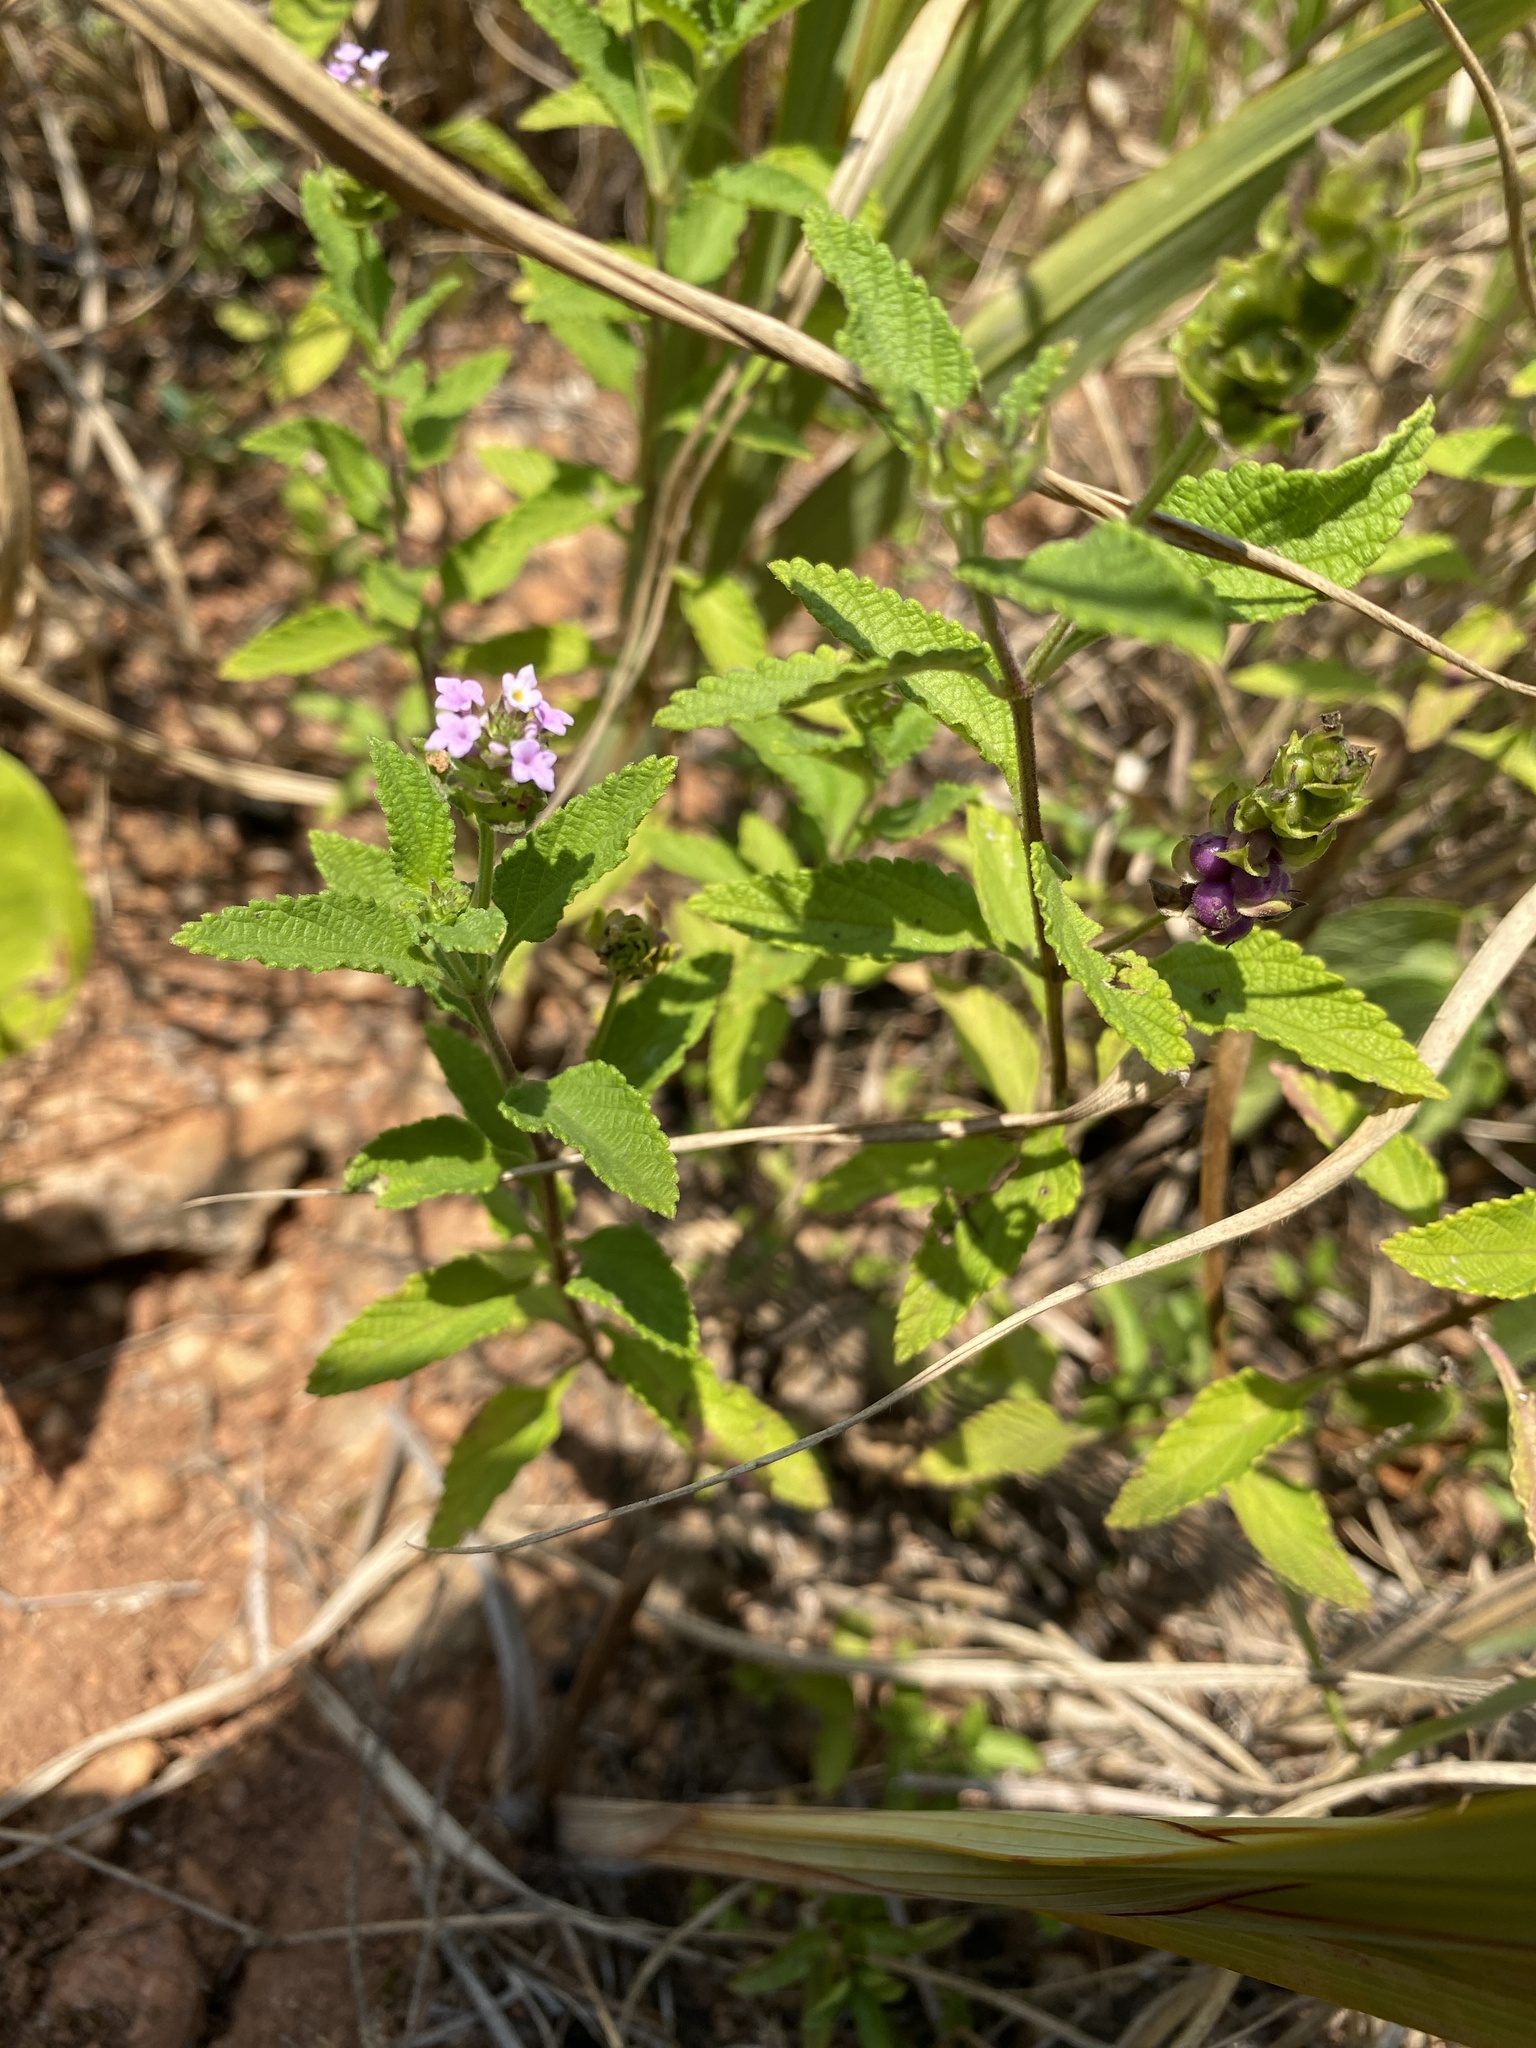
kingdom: Plantae
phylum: Tracheophyta
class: Magnoliopsida
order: Lamiales
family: Verbenaceae
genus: Lantana
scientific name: Lantana rugosa
